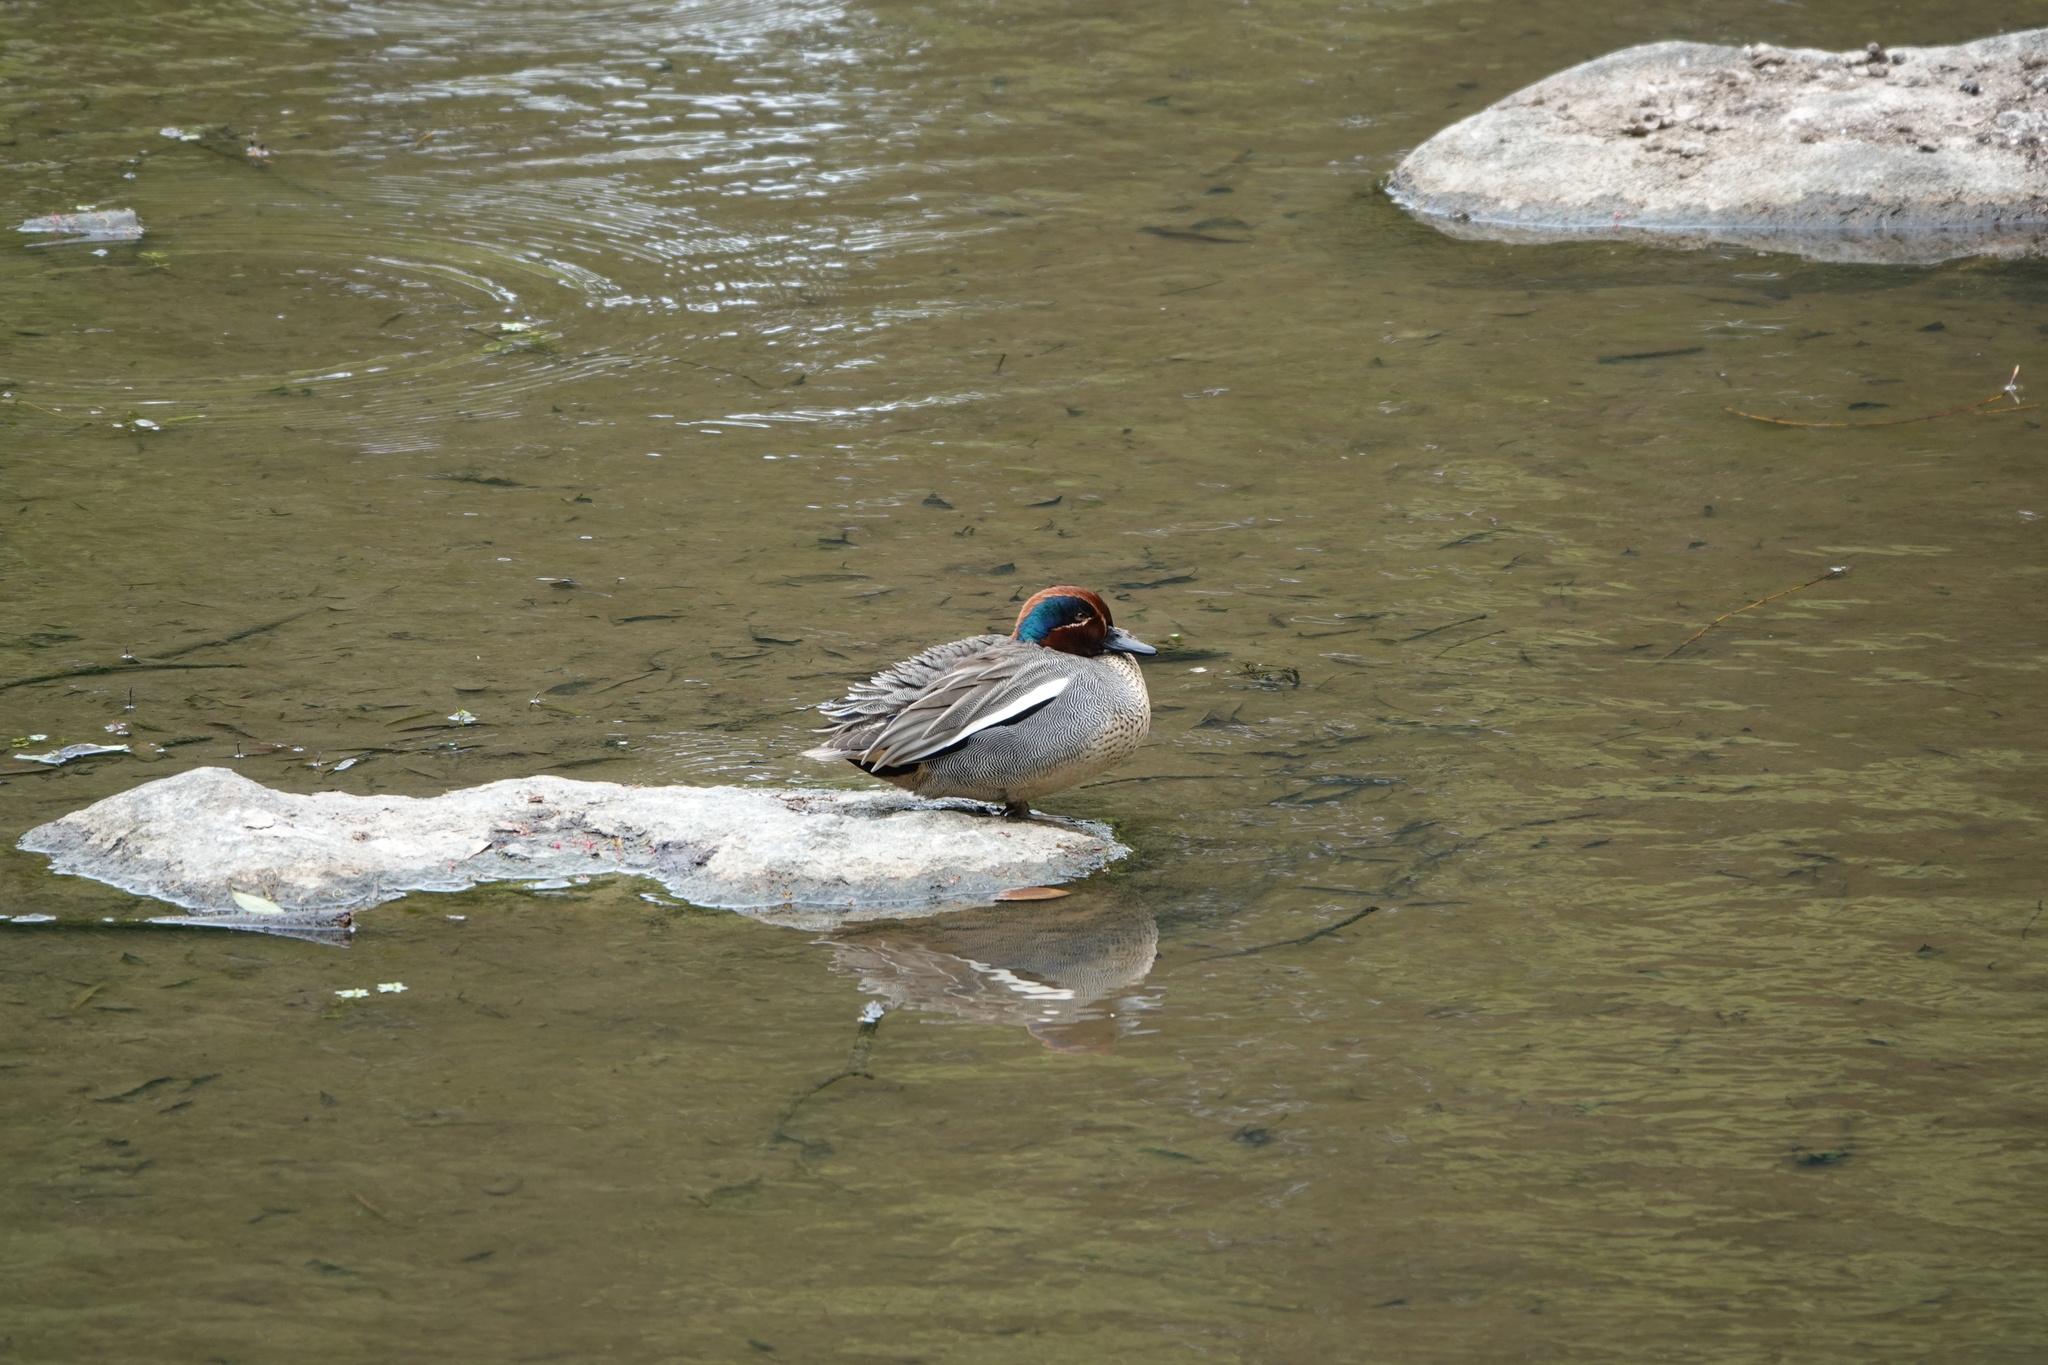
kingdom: Animalia
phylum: Chordata
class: Aves
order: Anseriformes
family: Anatidae
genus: Anas
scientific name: Anas crecca
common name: Eurasian teal
